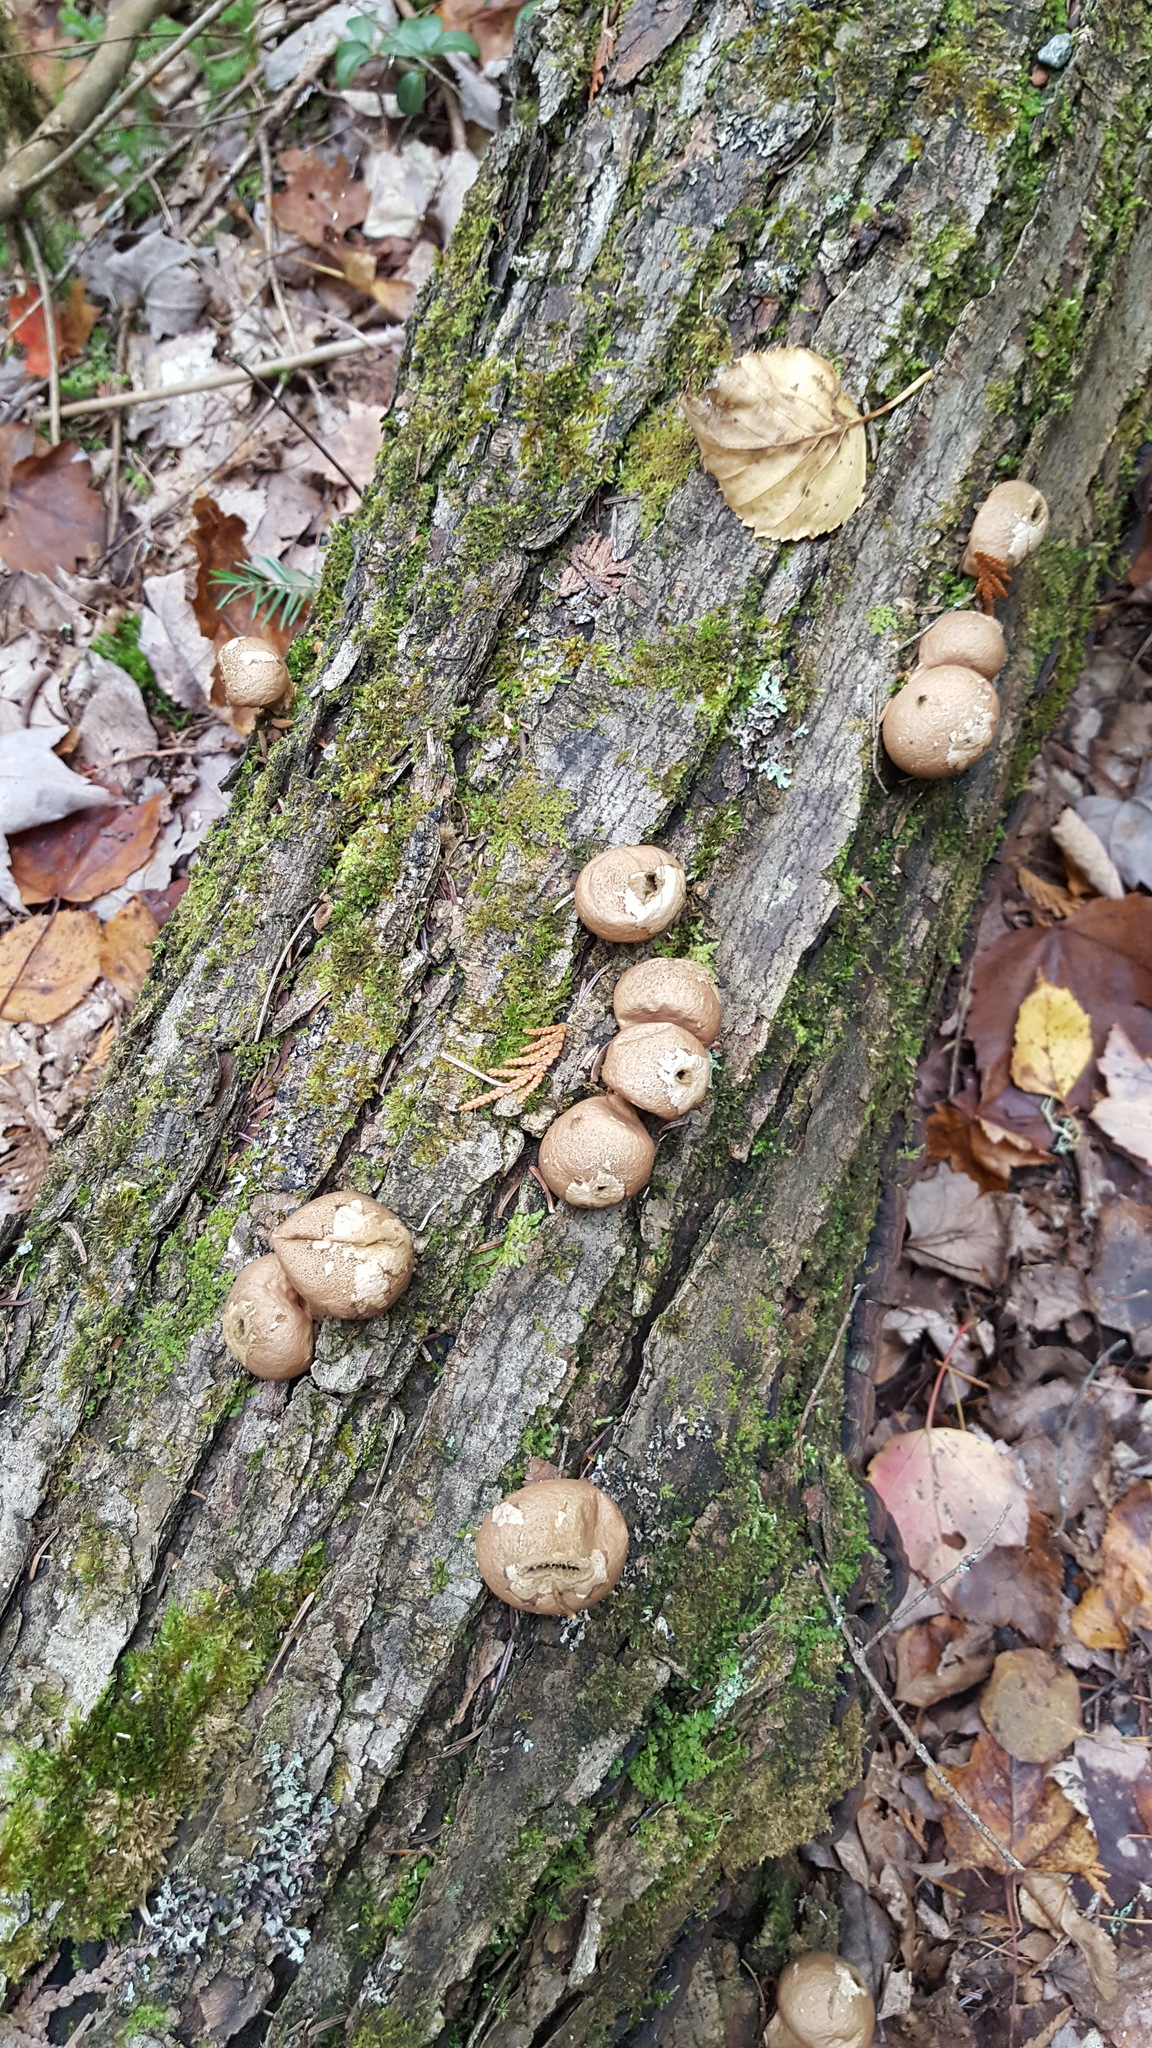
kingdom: Fungi
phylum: Basidiomycota
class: Agaricomycetes
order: Agaricales
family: Lycoperdaceae
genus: Apioperdon
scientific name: Apioperdon pyriforme
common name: Pear-shaped puffball
